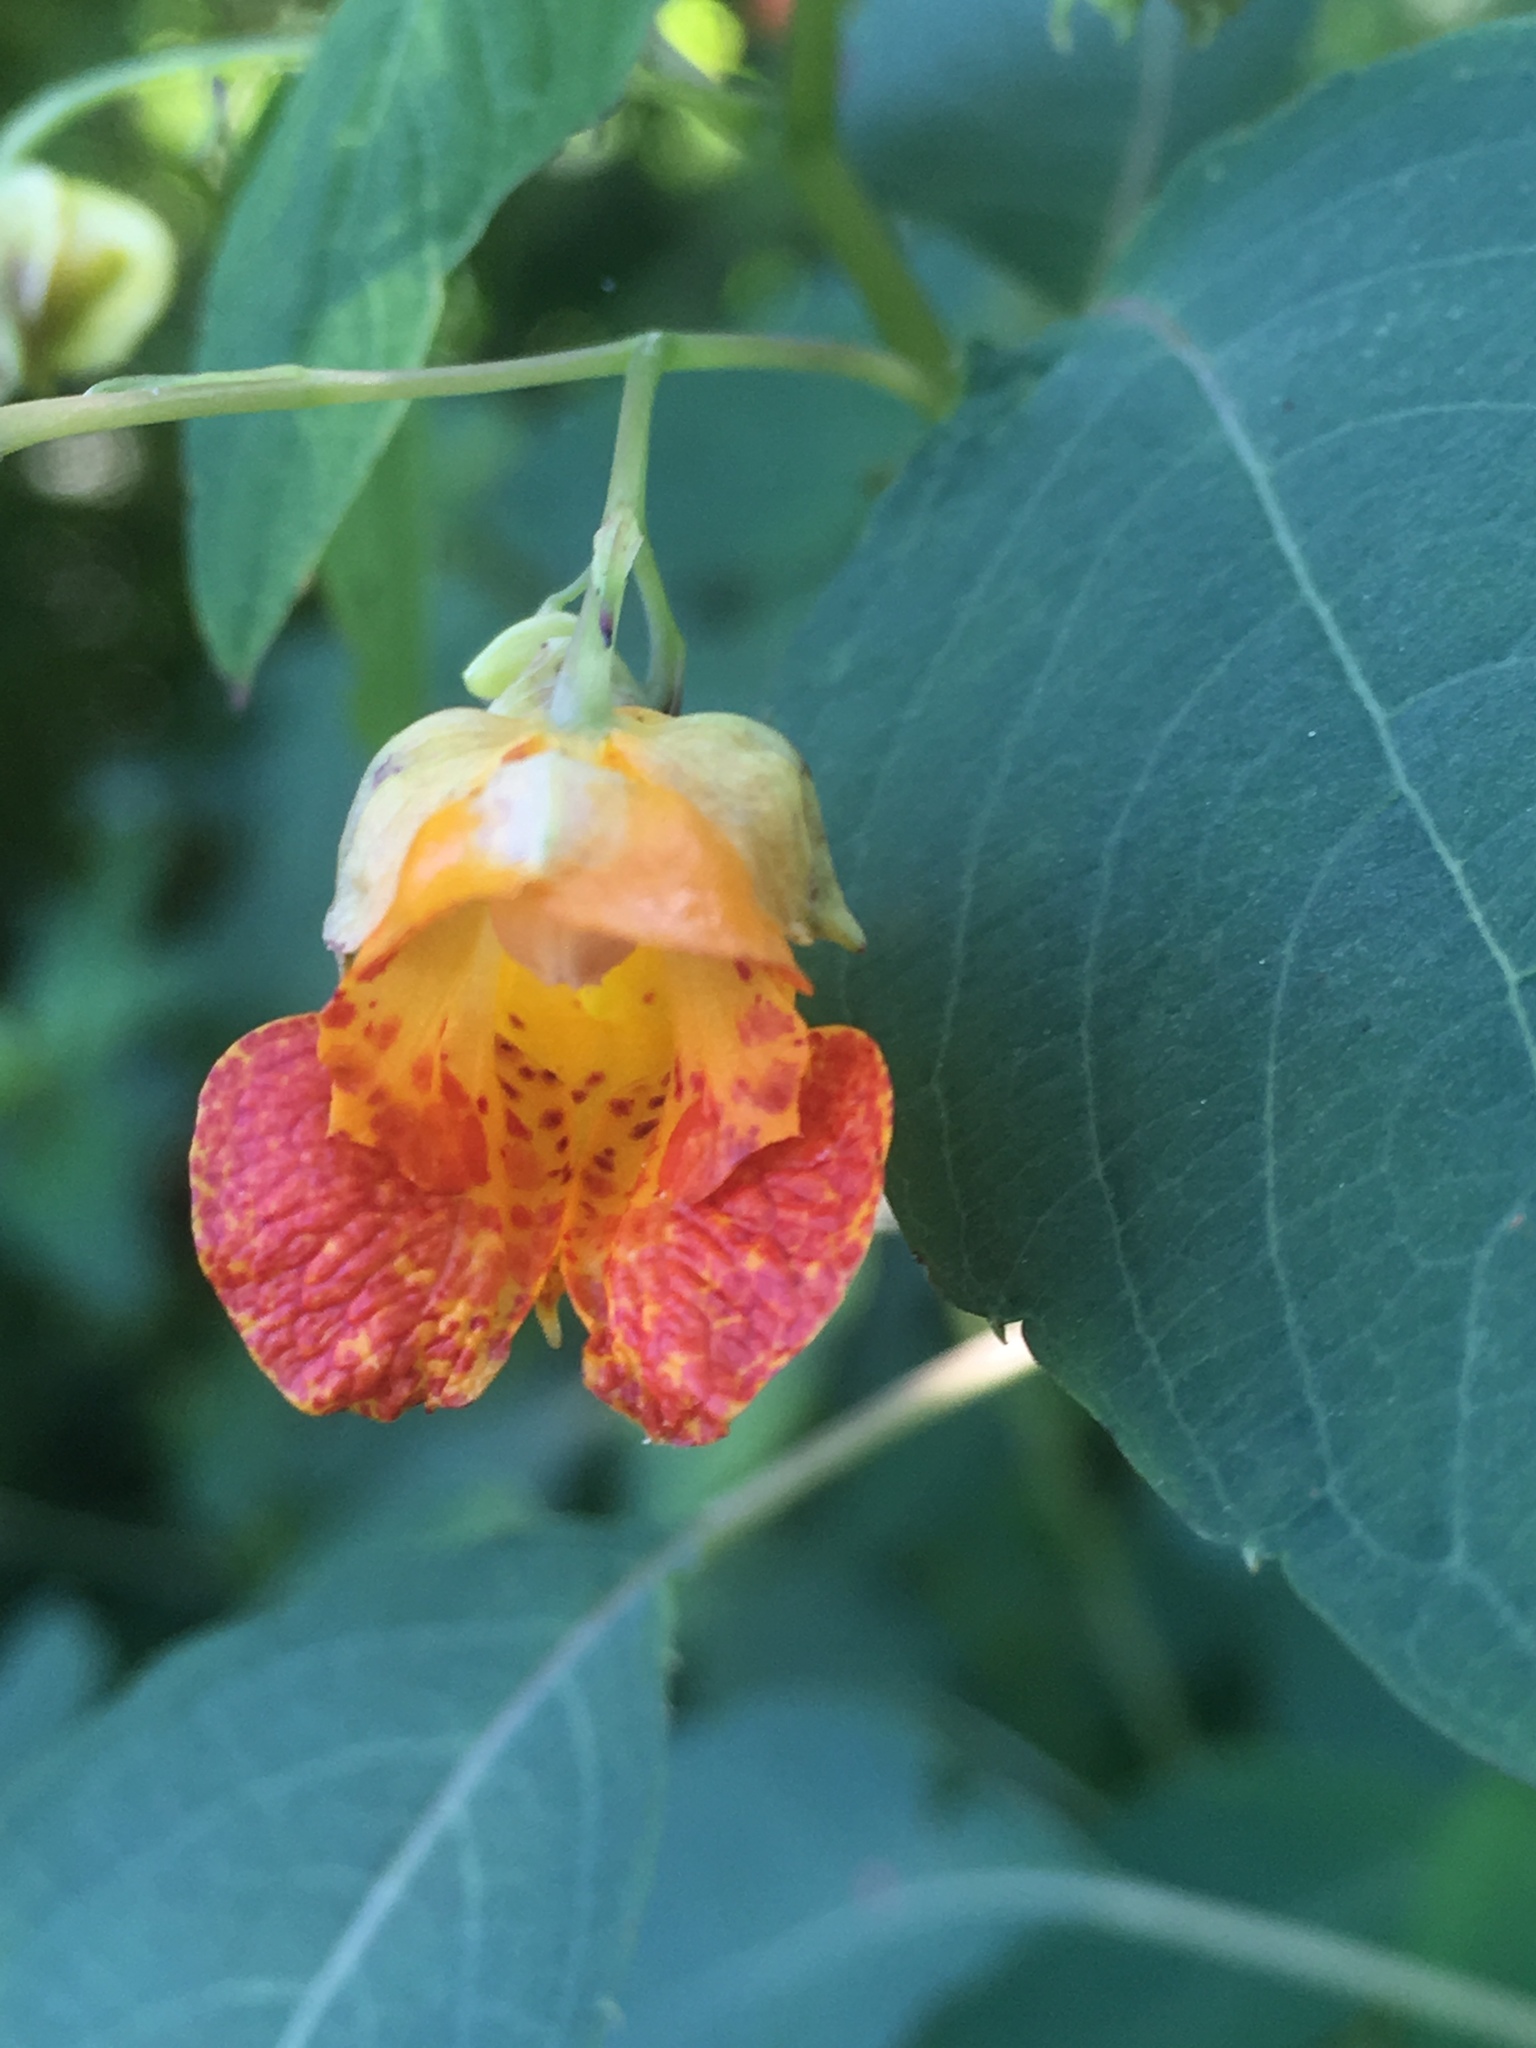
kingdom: Plantae
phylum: Tracheophyta
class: Magnoliopsida
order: Ericales
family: Balsaminaceae
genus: Impatiens
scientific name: Impatiens capensis
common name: Orange balsam
